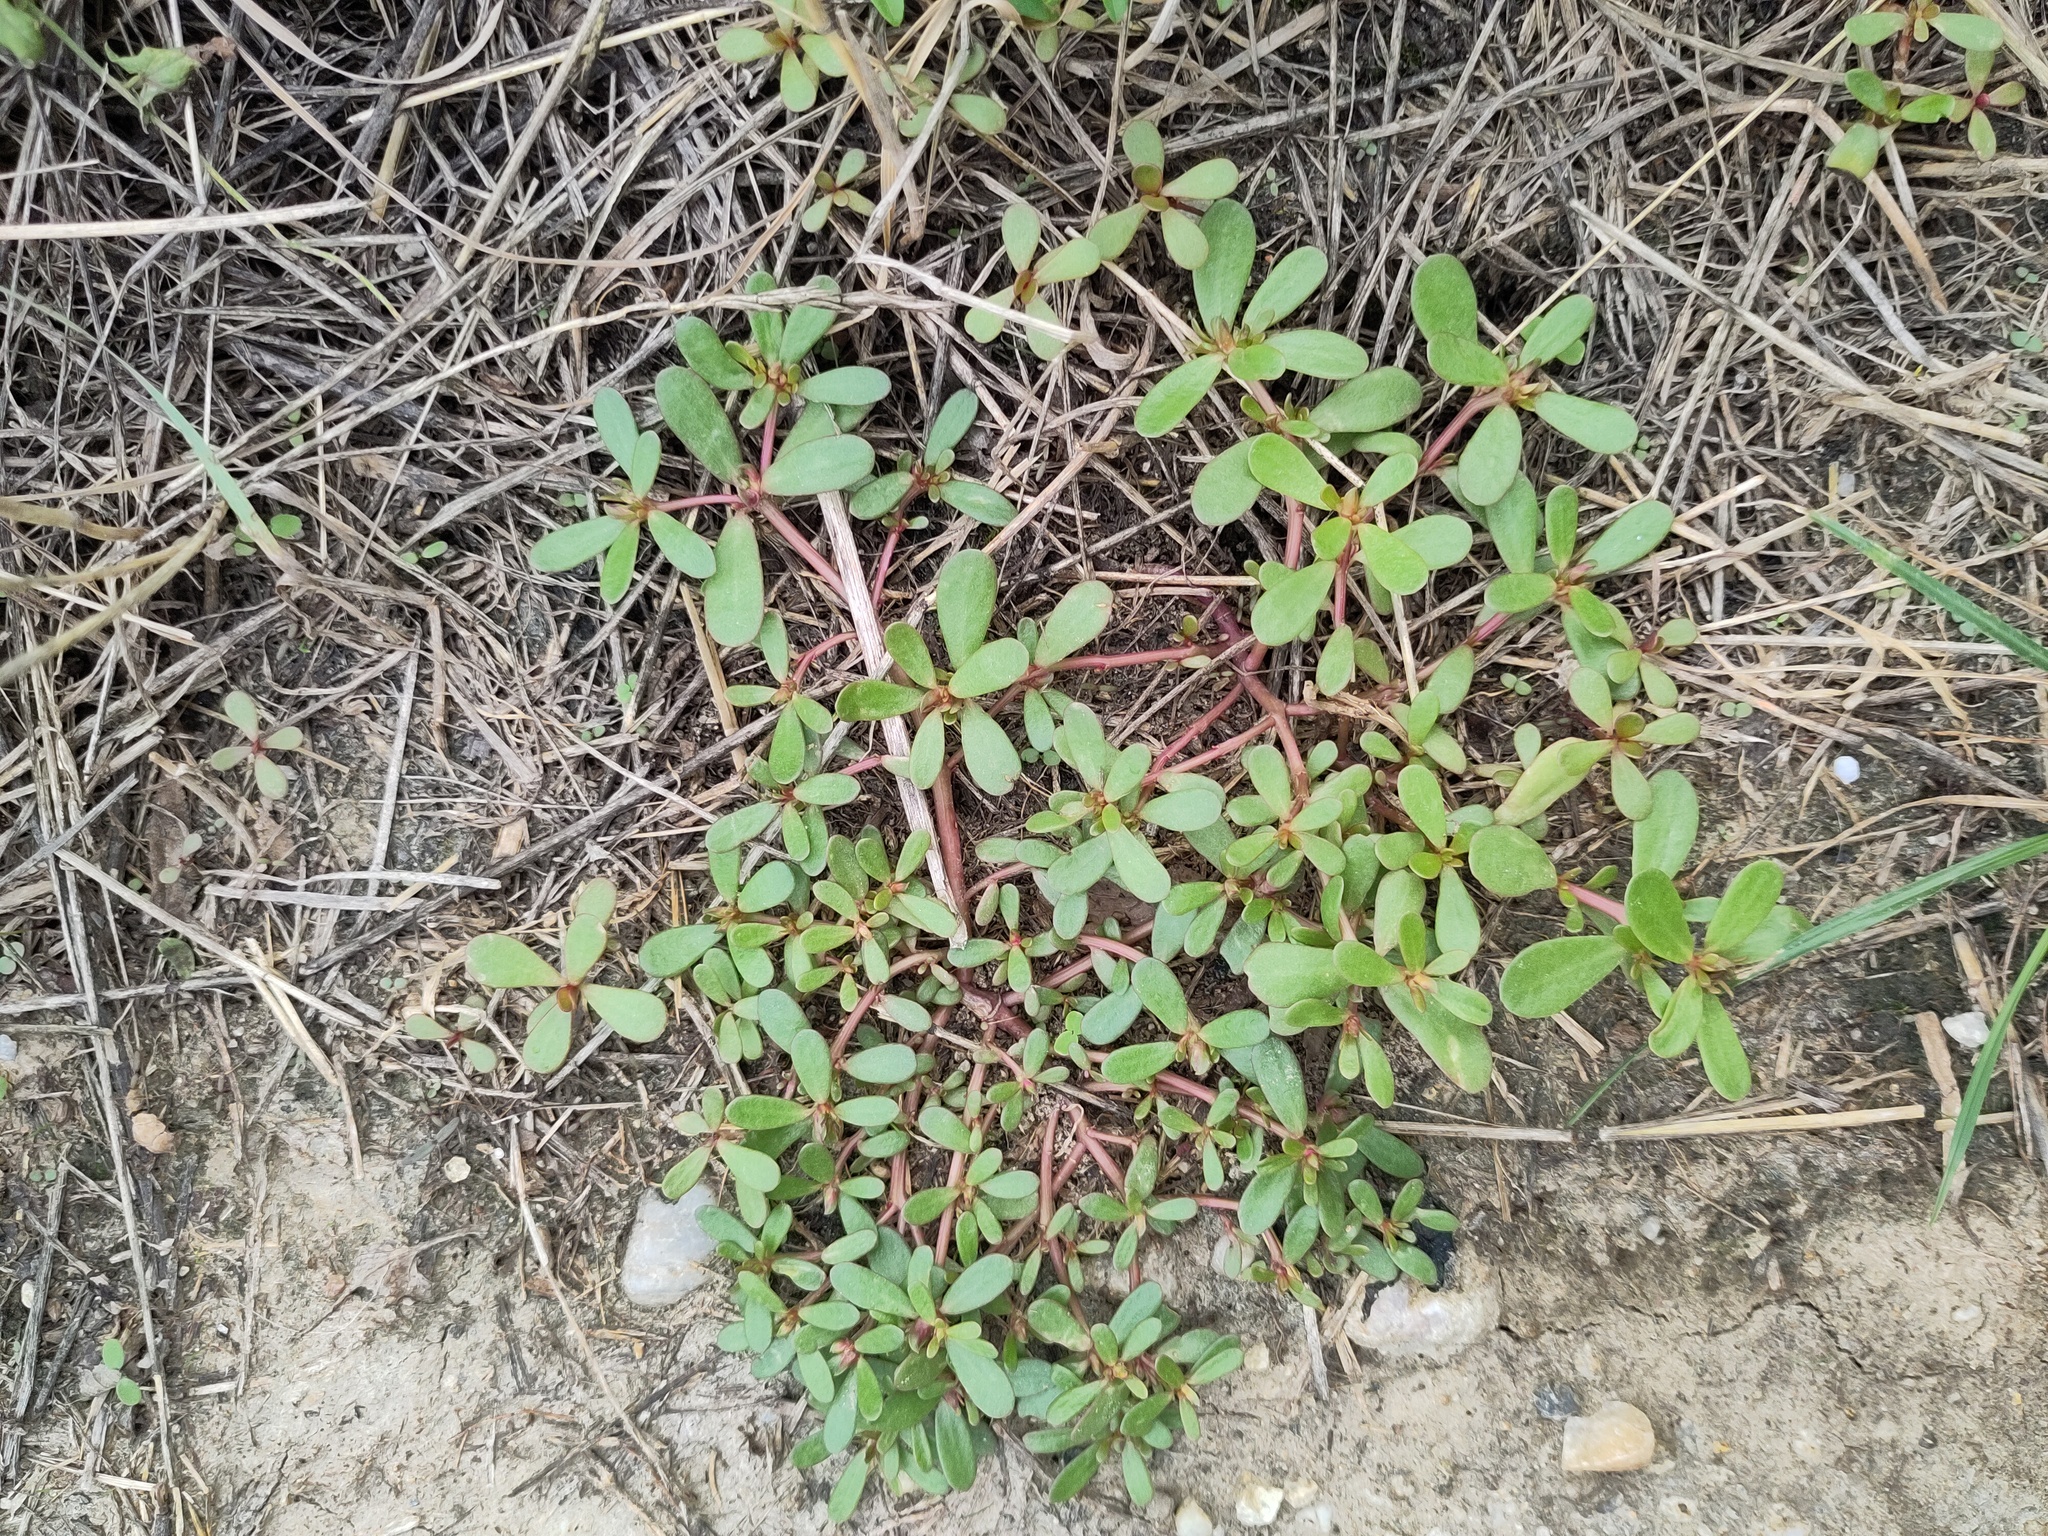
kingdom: Plantae
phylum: Tracheophyta
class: Magnoliopsida
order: Caryophyllales
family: Portulacaceae
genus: Portulaca
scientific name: Portulaca oleracea
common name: Common purslane
